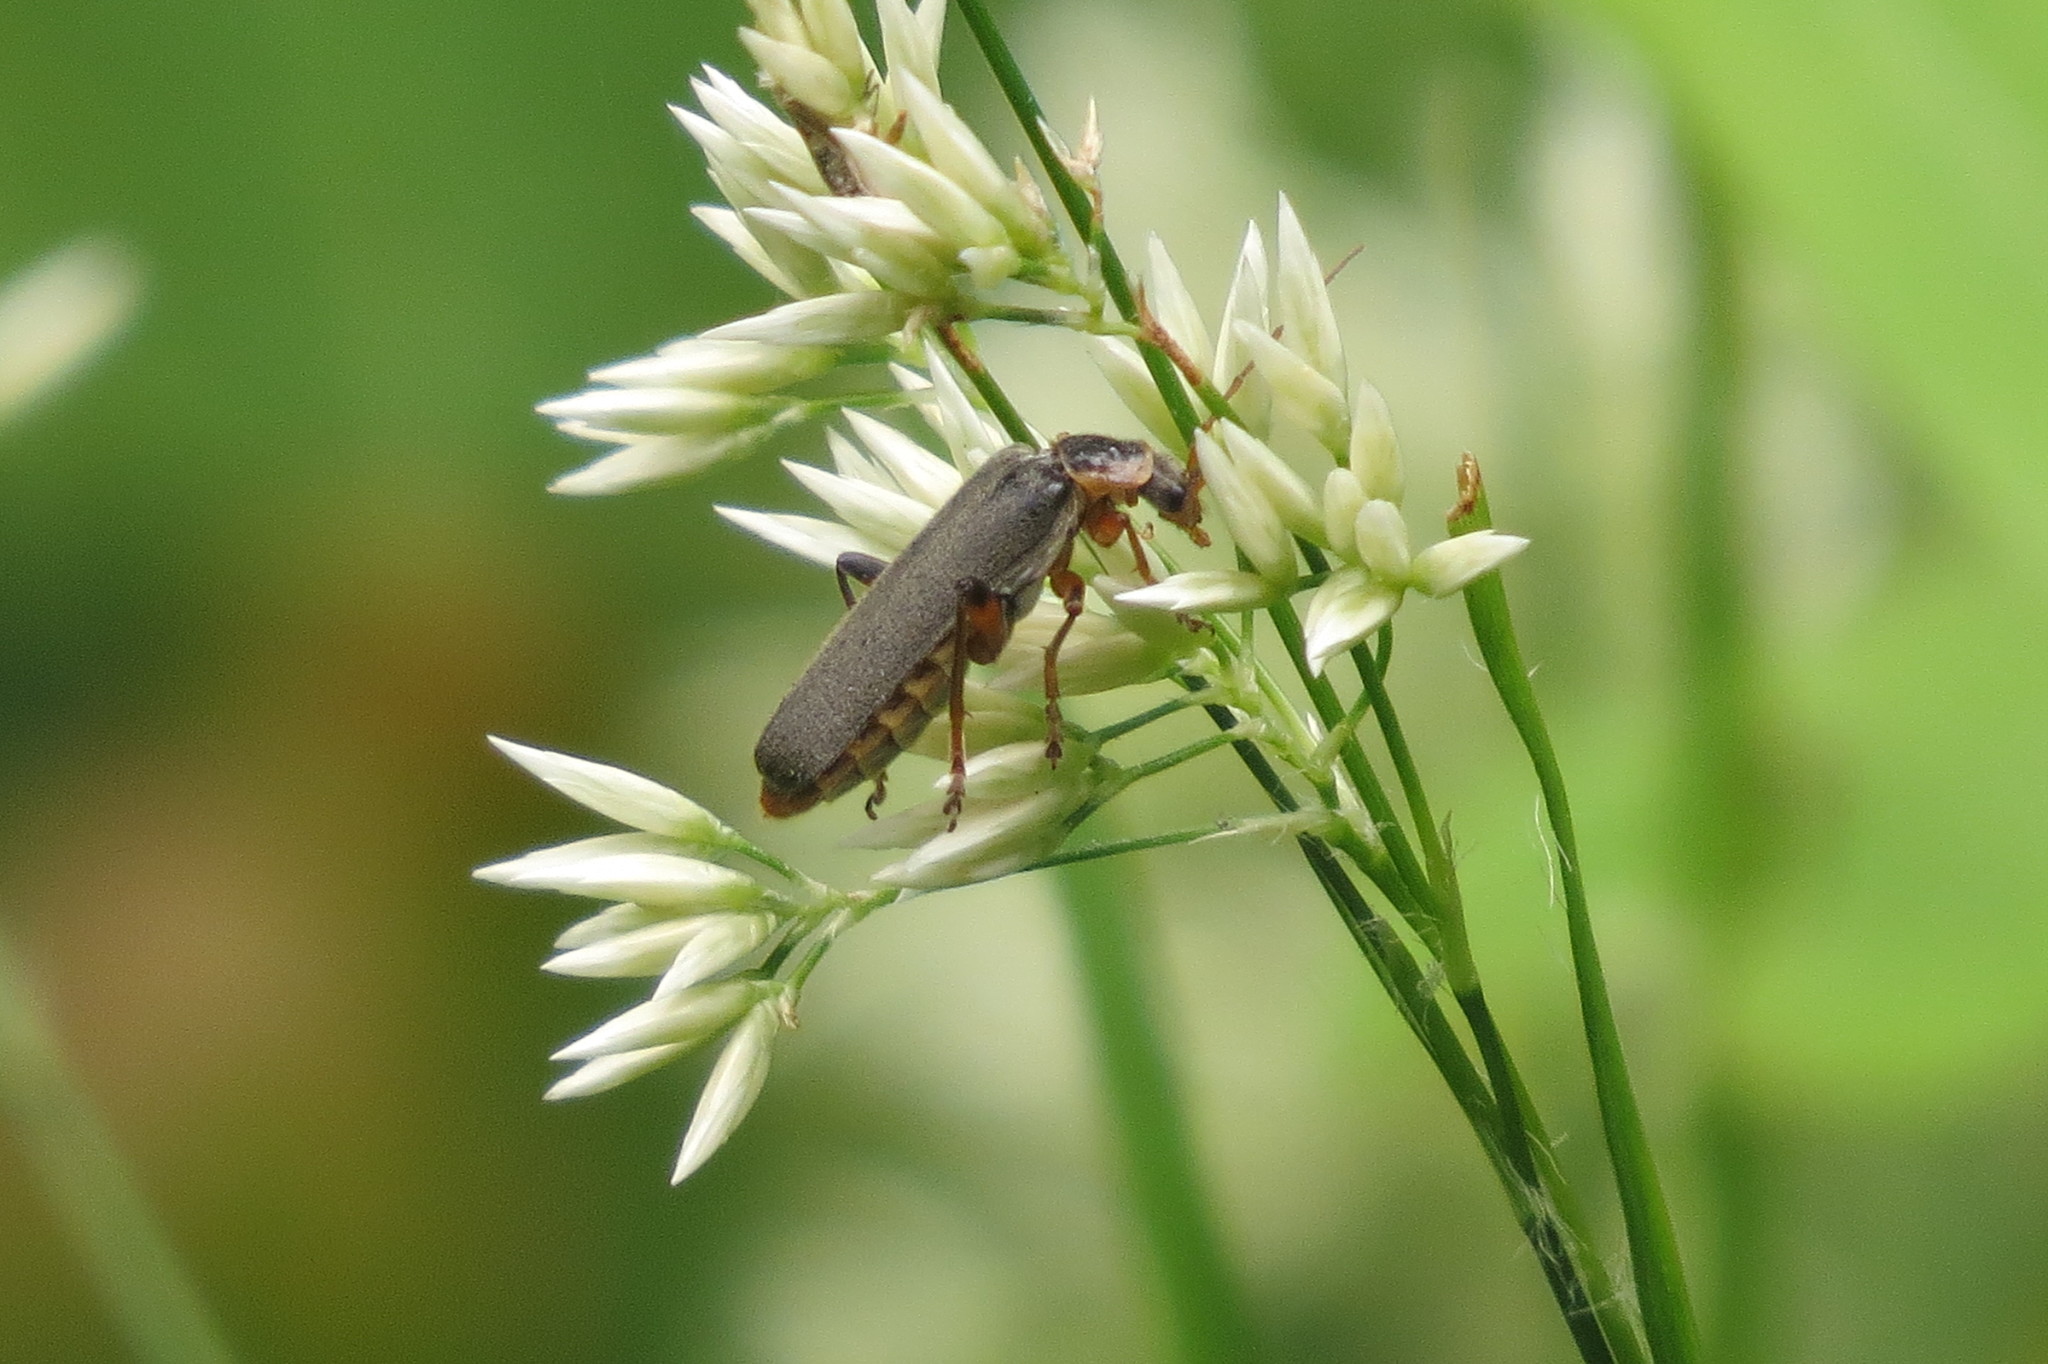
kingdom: Animalia
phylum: Arthropoda
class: Insecta
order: Coleoptera
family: Cantharidae
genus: Cantharis
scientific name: Cantharis nigricans
